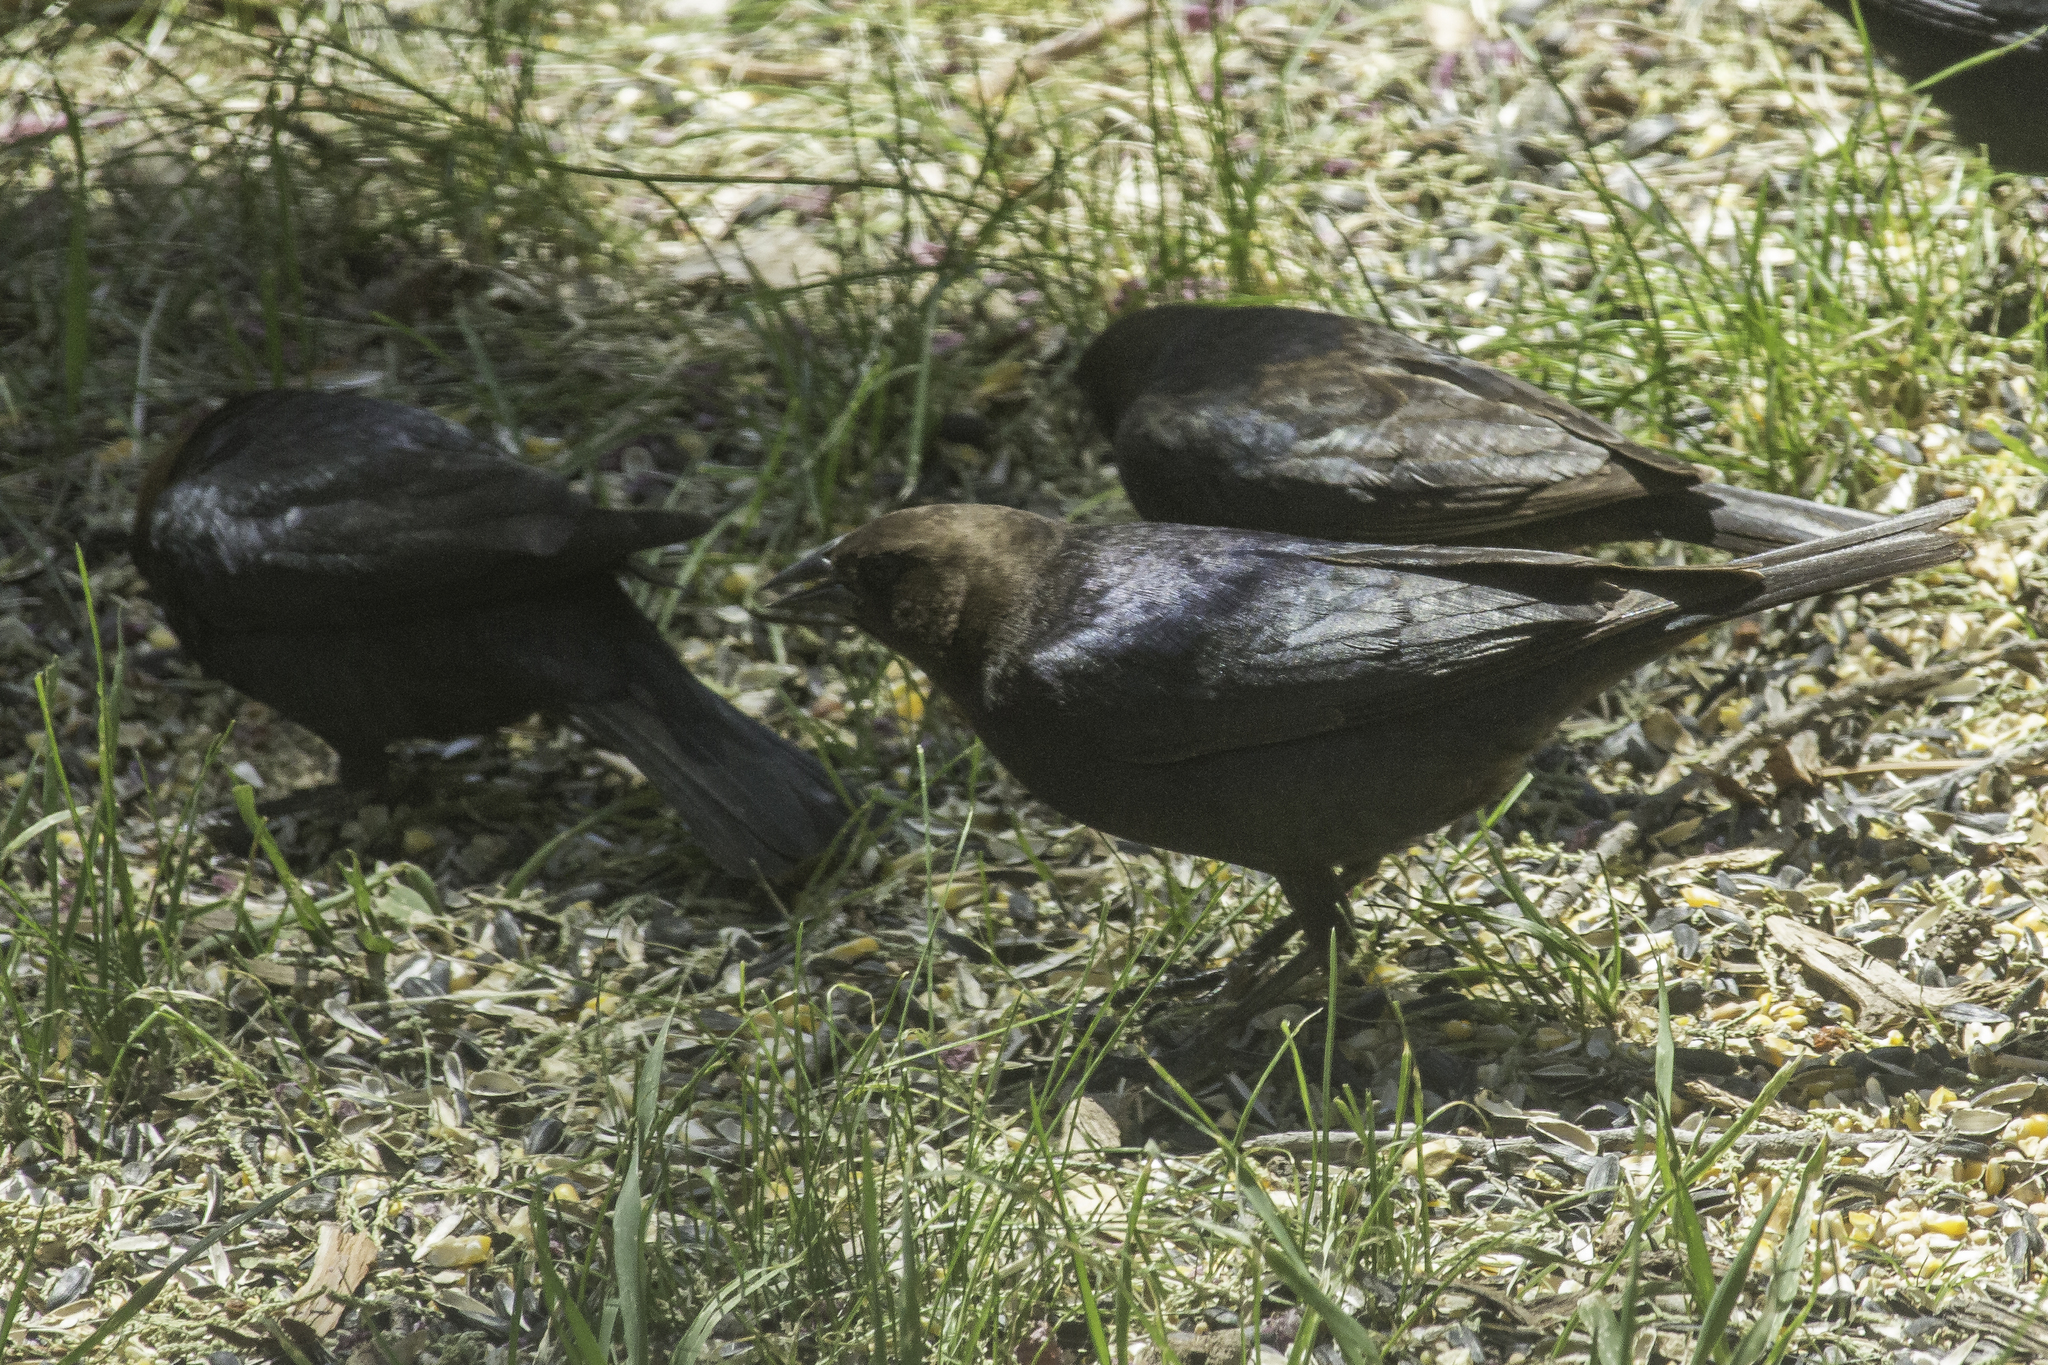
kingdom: Animalia
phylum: Chordata
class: Aves
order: Passeriformes
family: Icteridae
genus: Molothrus
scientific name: Molothrus ater
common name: Brown-headed cowbird
